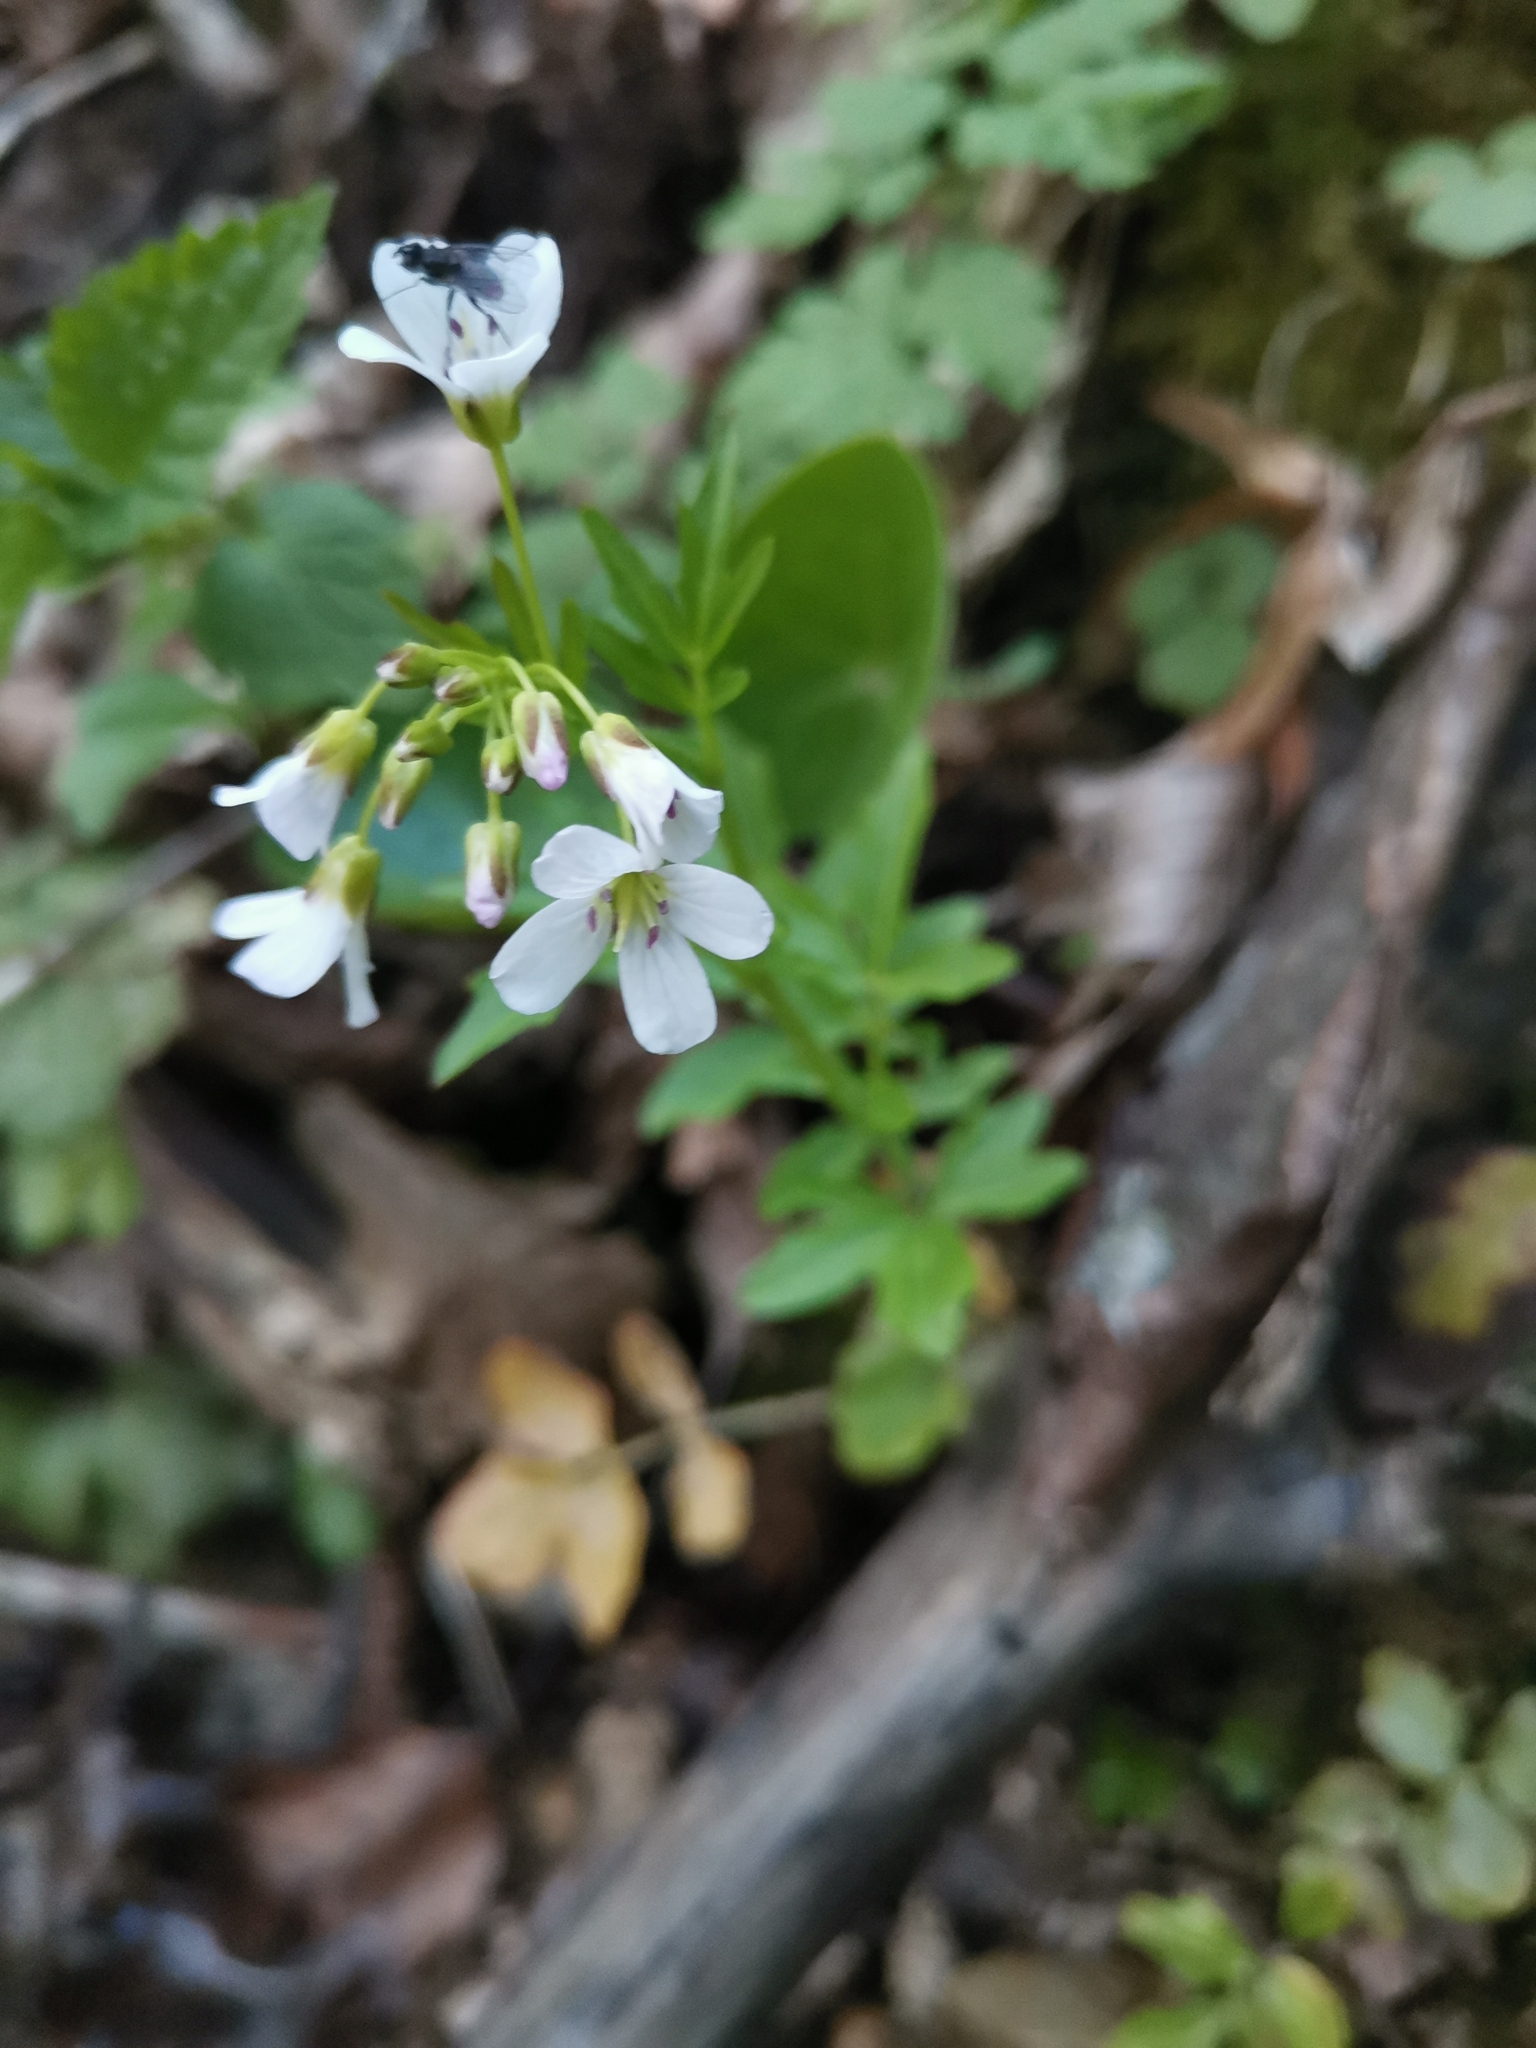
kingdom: Plantae
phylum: Tracheophyta
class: Magnoliopsida
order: Brassicales
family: Brassicaceae
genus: Cardamine
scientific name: Cardamine amara
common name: Large bitter-cress
